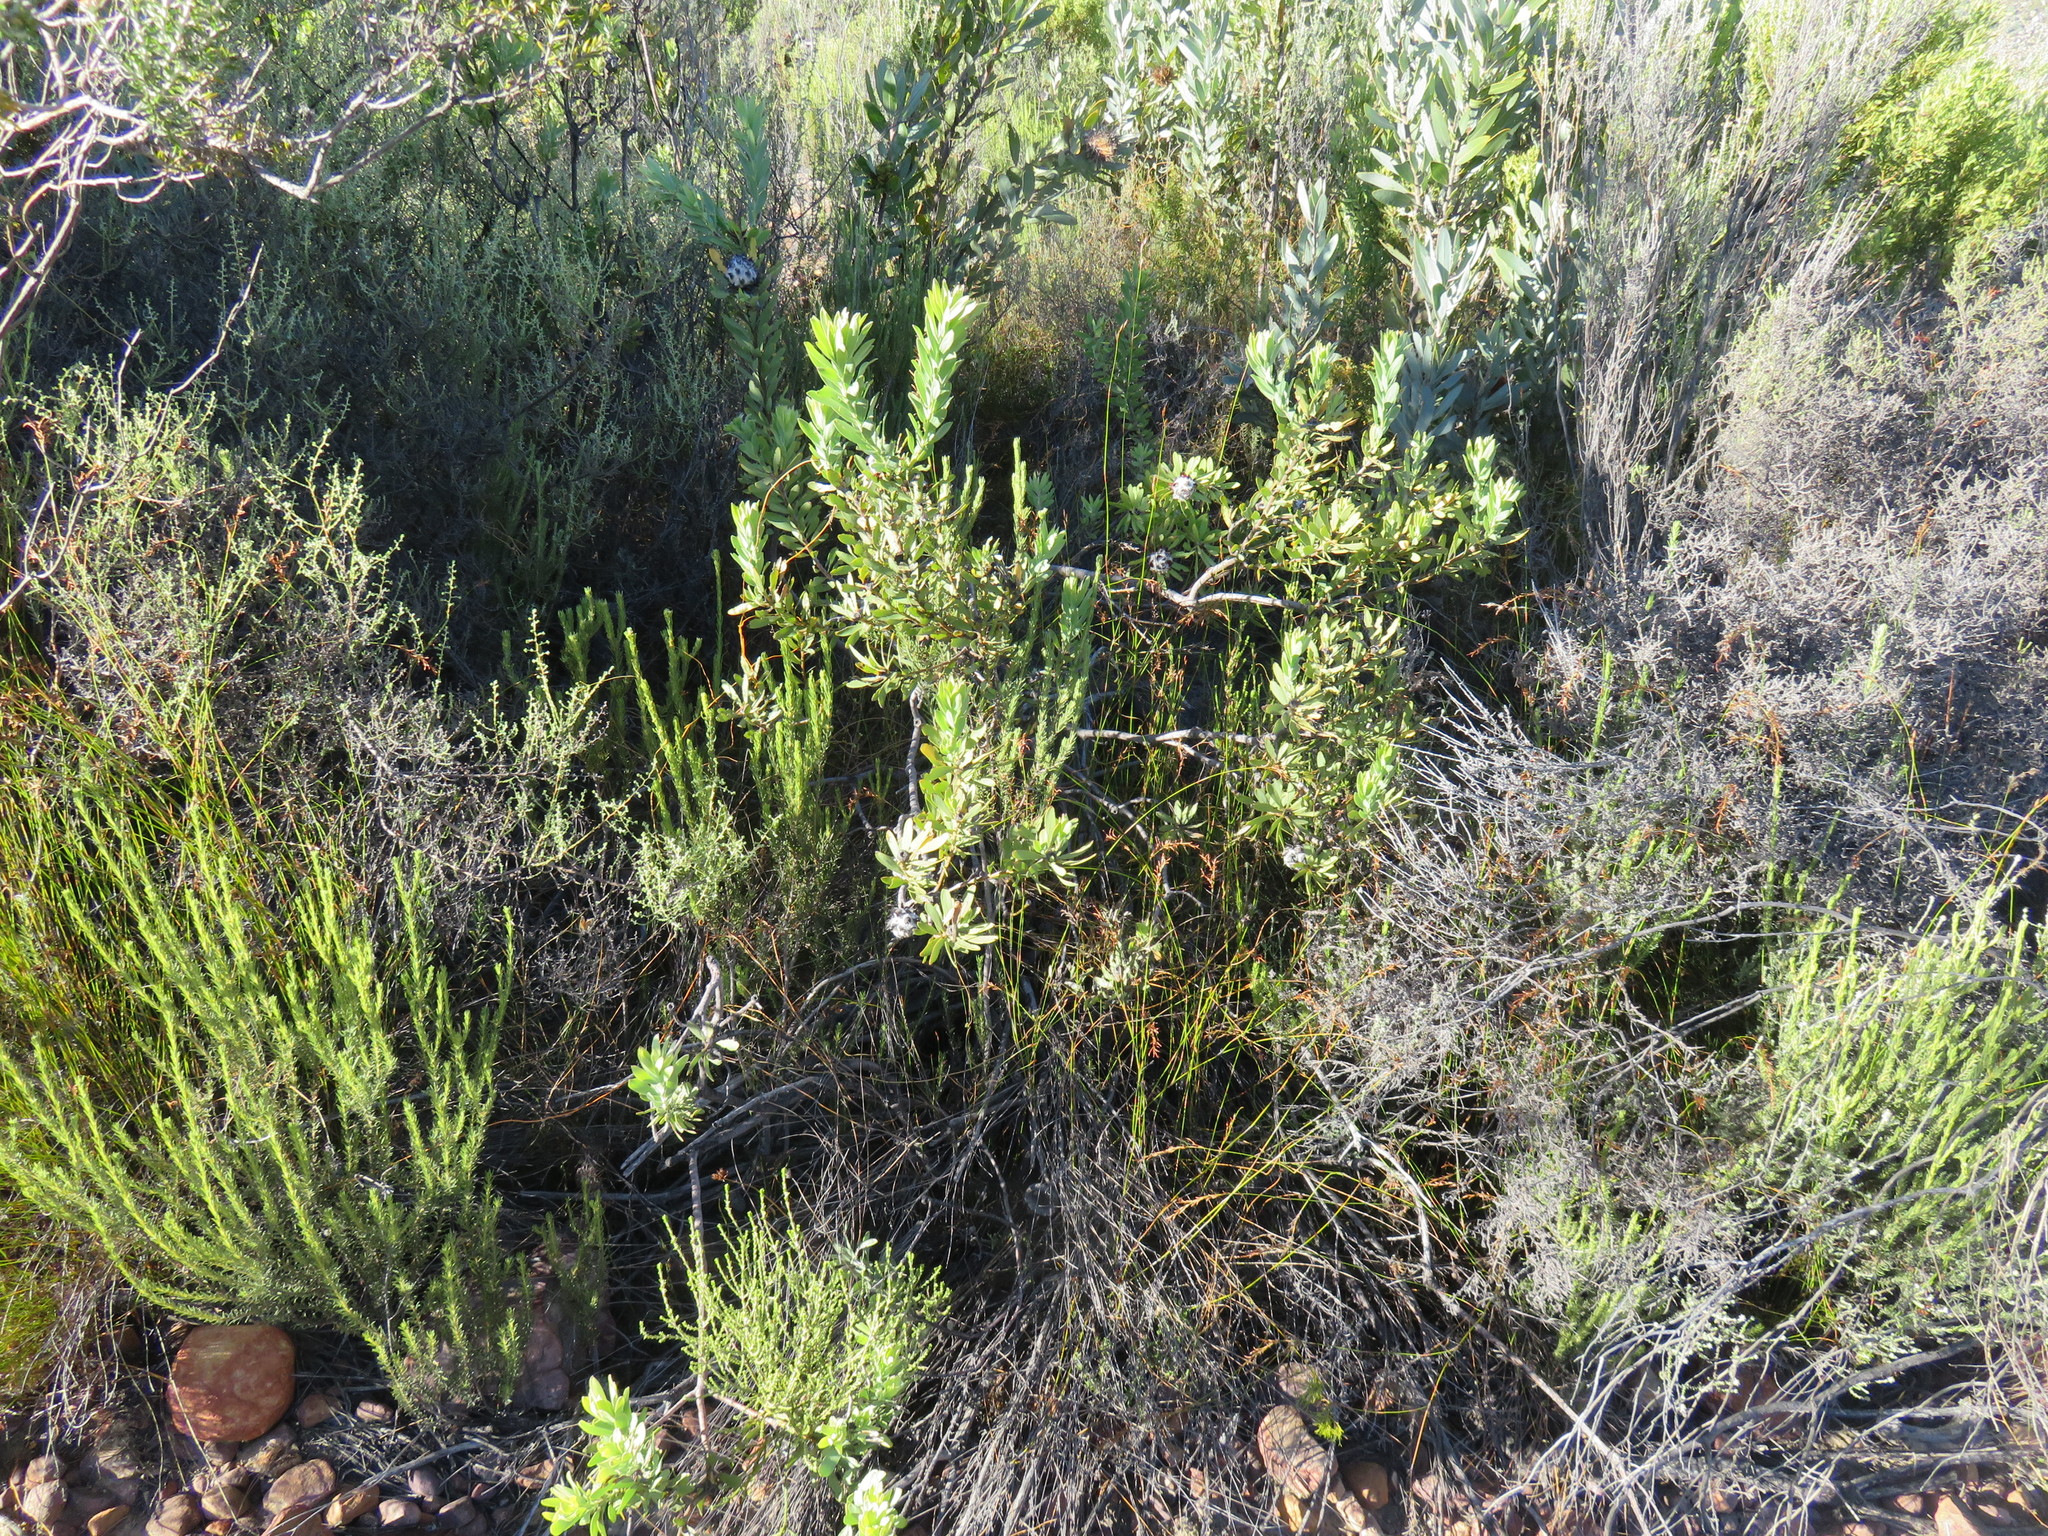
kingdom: Plantae
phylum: Tracheophyta
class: Magnoliopsida
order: Proteales
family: Proteaceae
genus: Leucadendron
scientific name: Leucadendron pubescens
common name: Grey conebush
